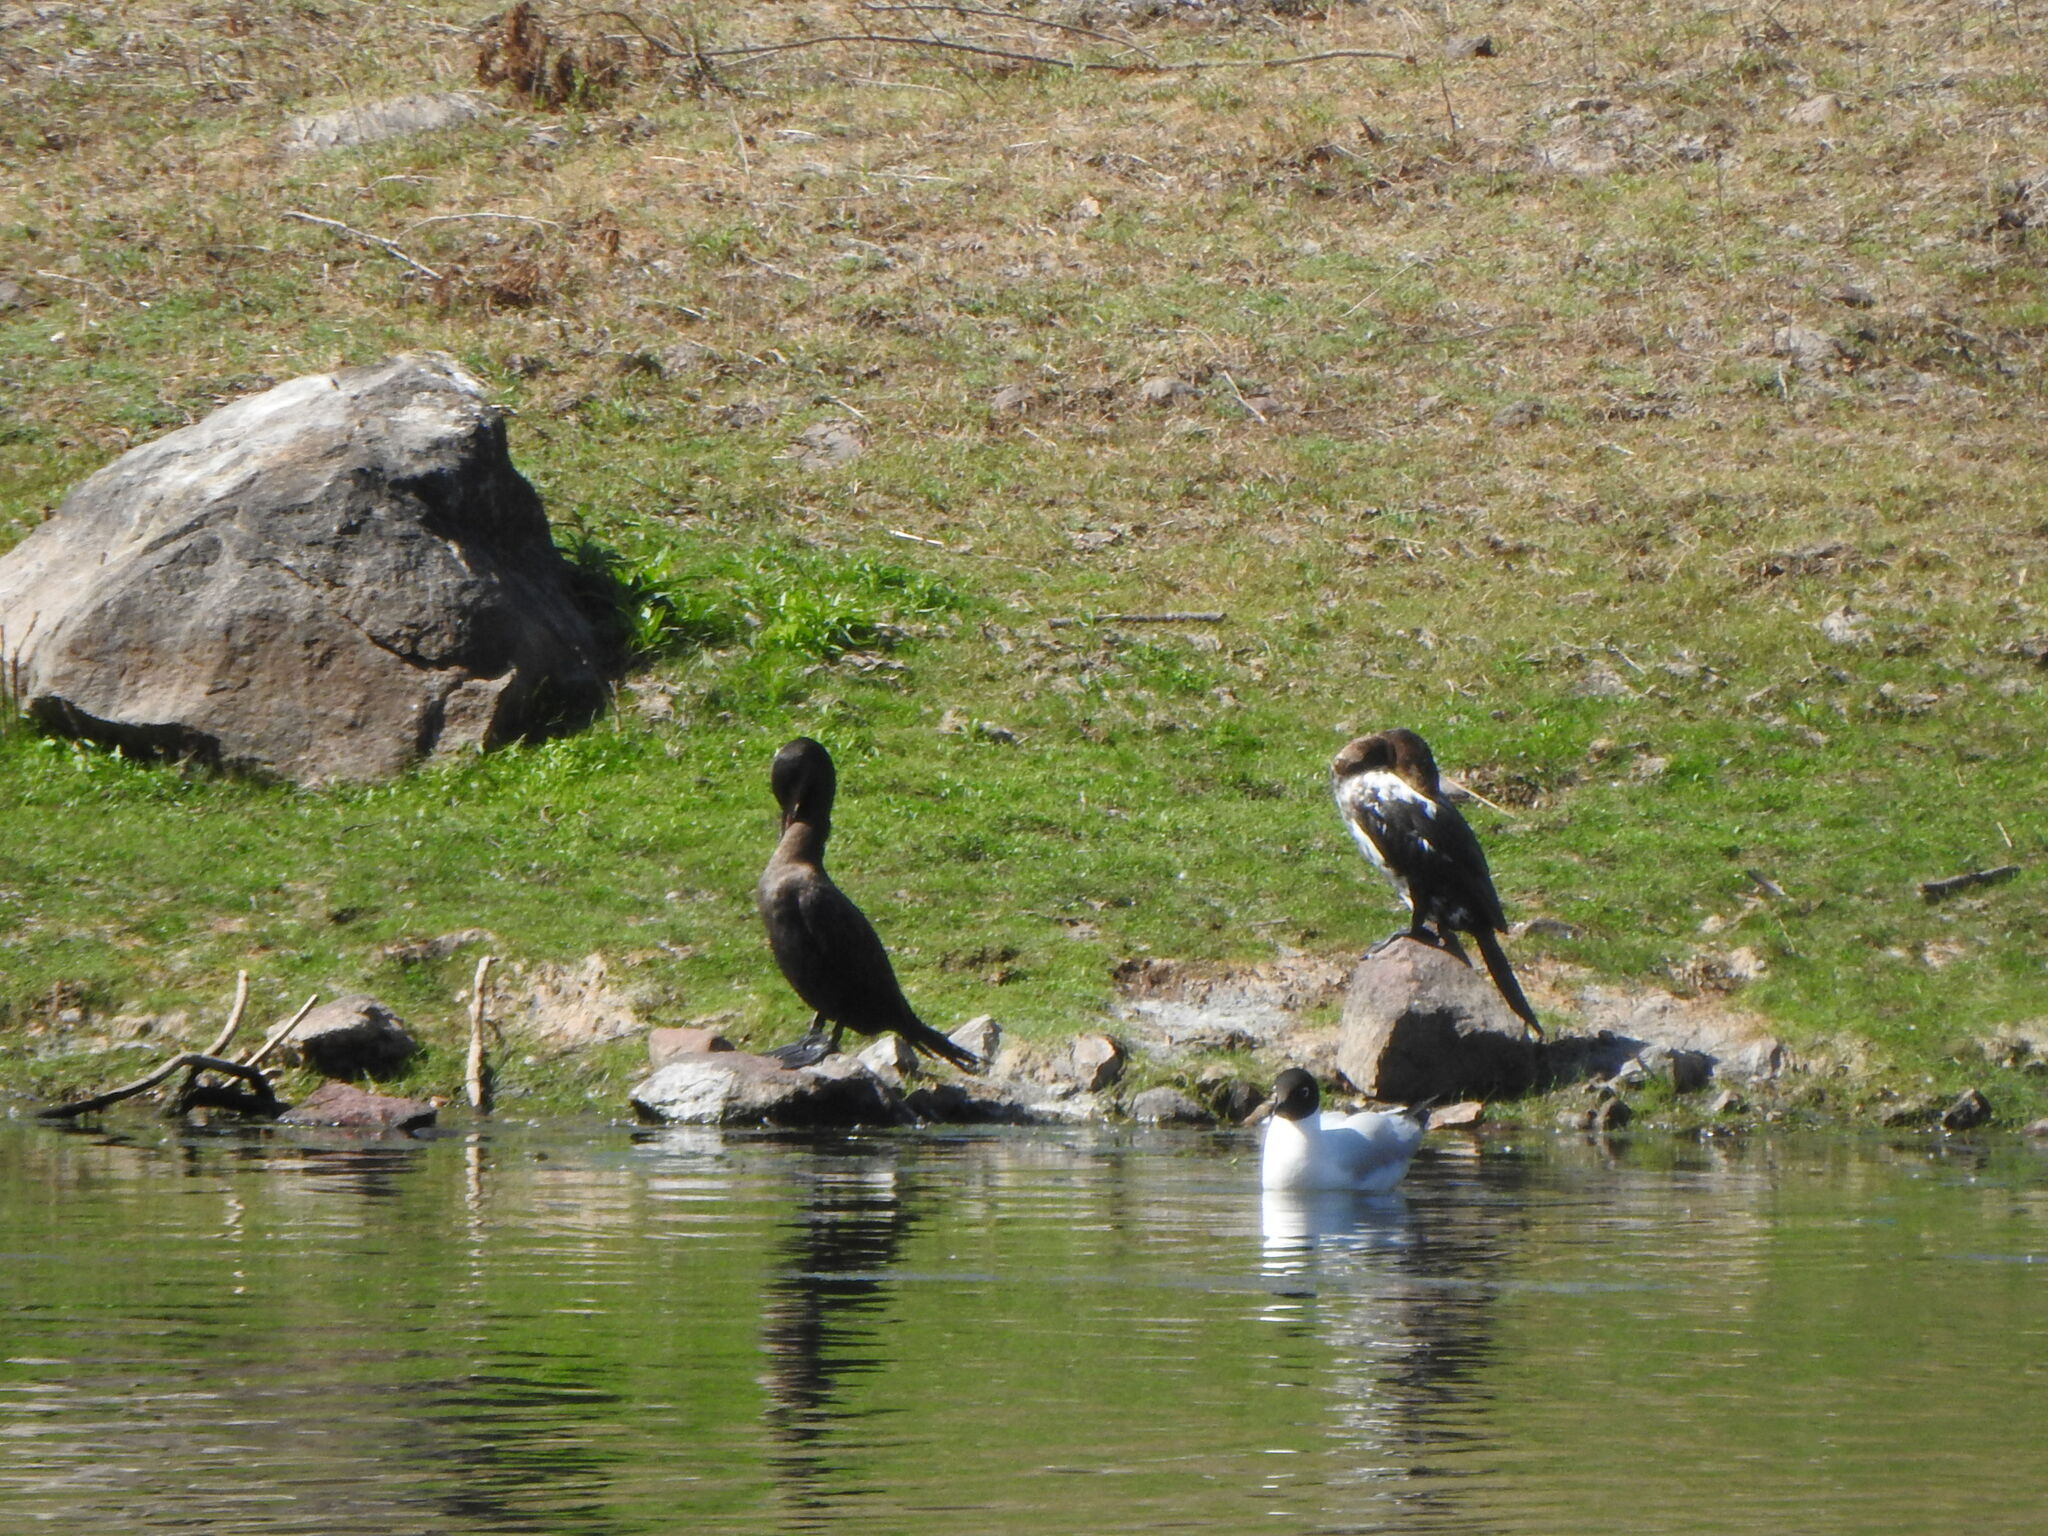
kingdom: Animalia
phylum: Chordata
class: Aves
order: Suliformes
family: Phalacrocoracidae
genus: Phalacrocorax
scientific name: Phalacrocorax brasilianus
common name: Neotropic cormorant
